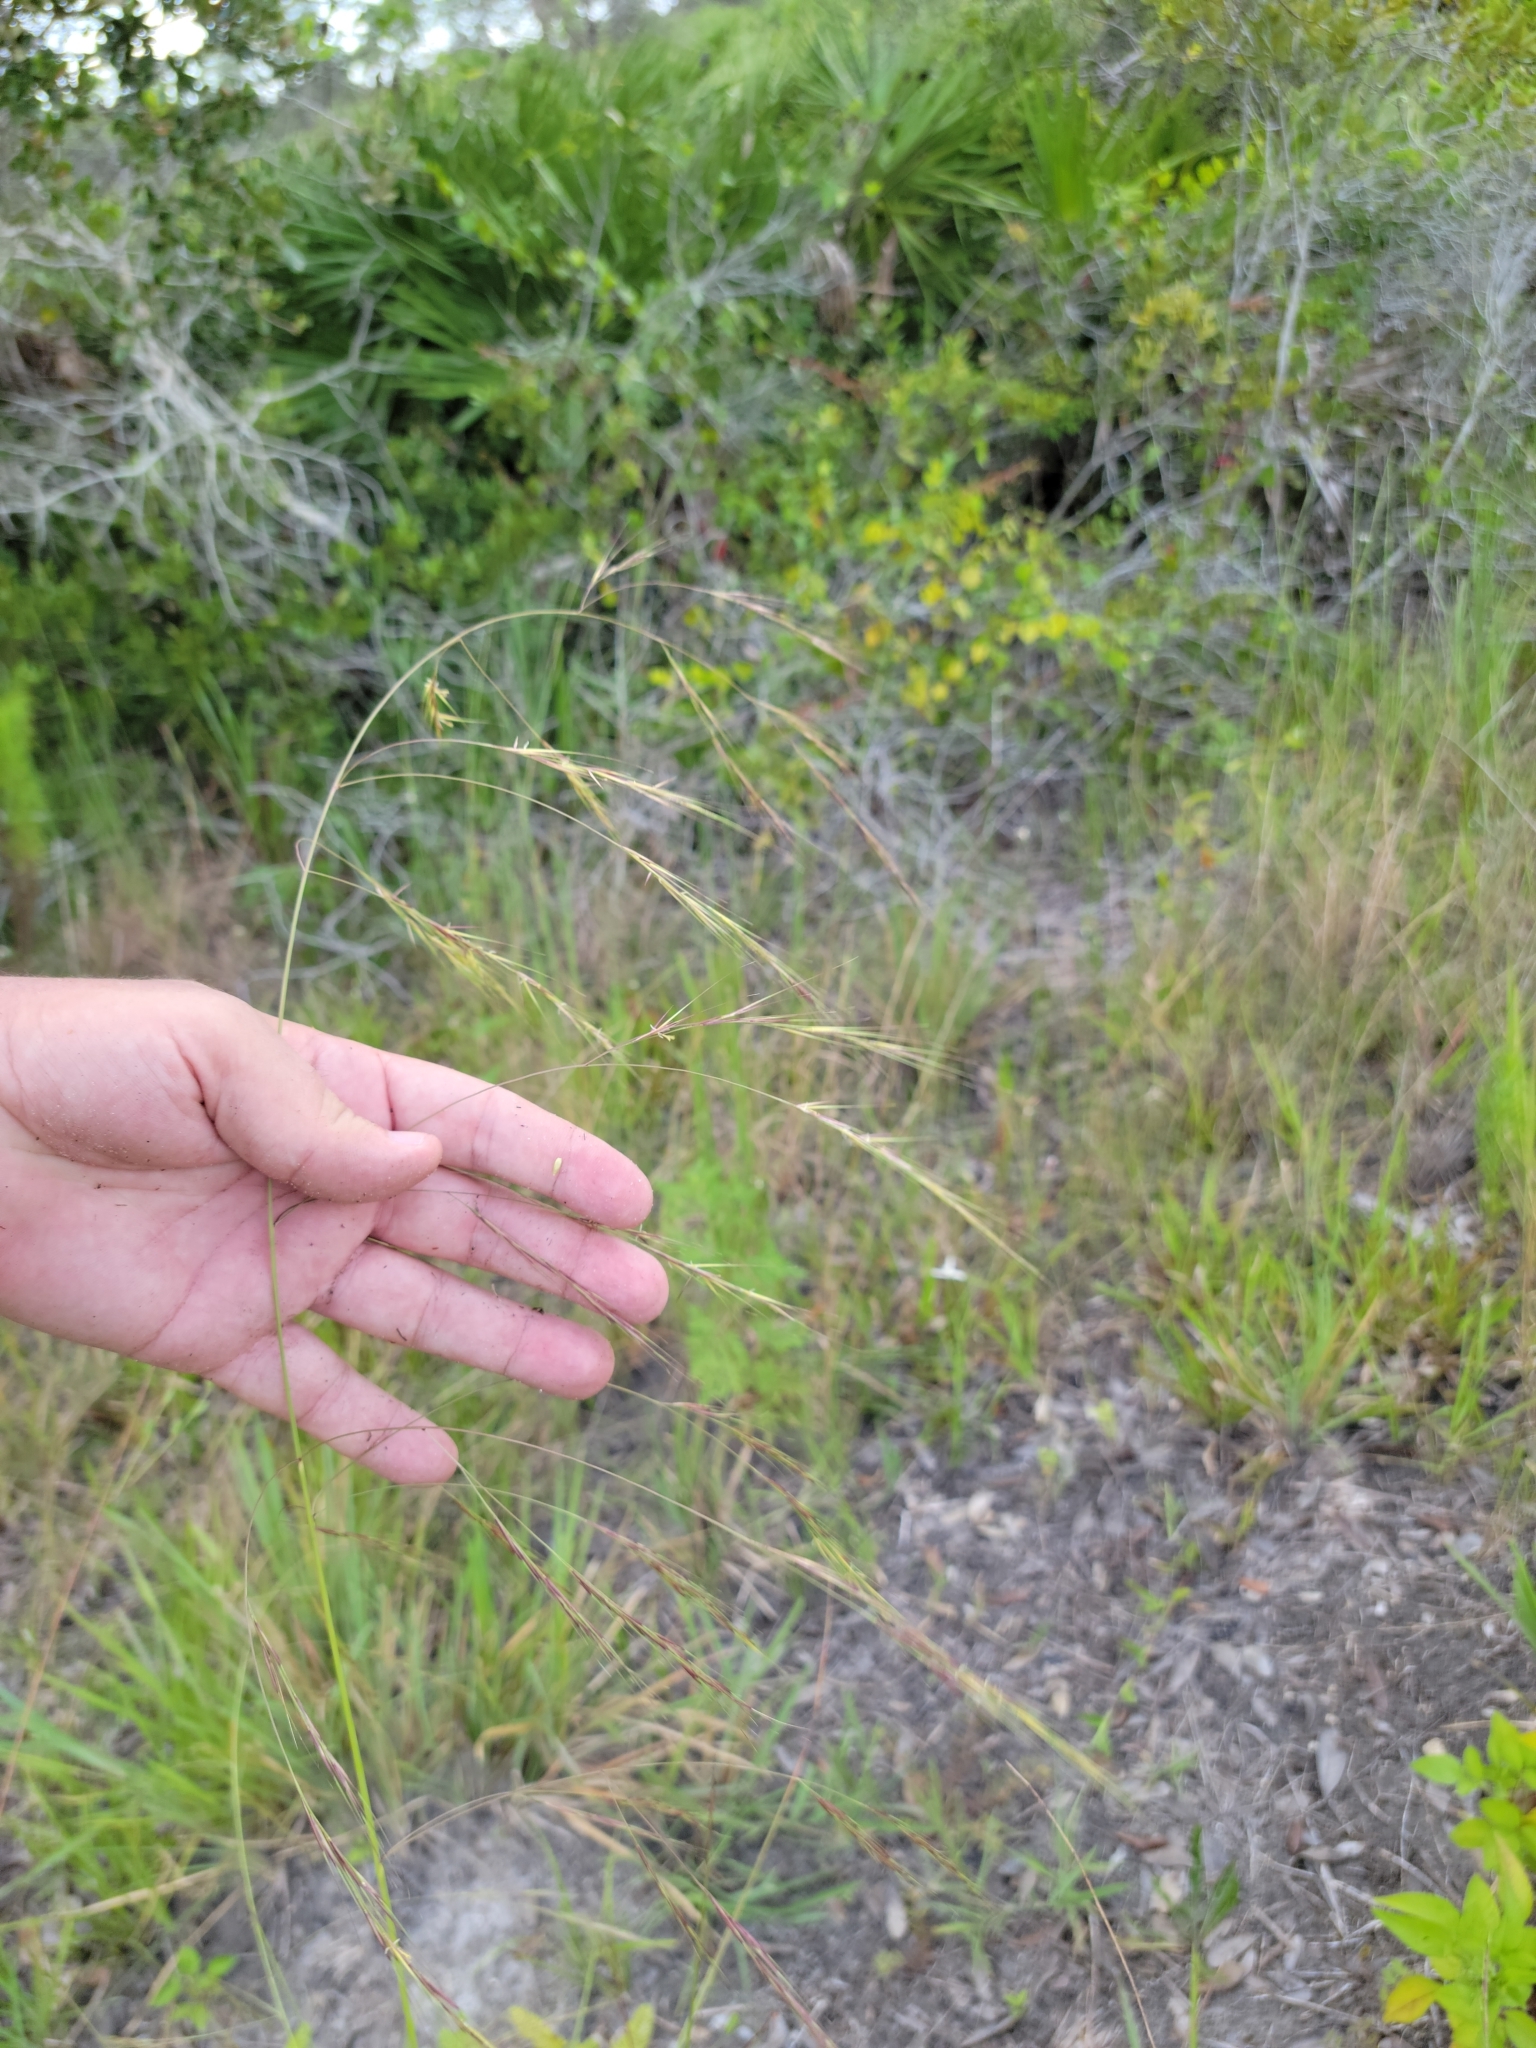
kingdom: Plantae
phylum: Tracheophyta
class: Liliopsida
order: Poales
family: Poaceae
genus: Aristida
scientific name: Aristida patula
